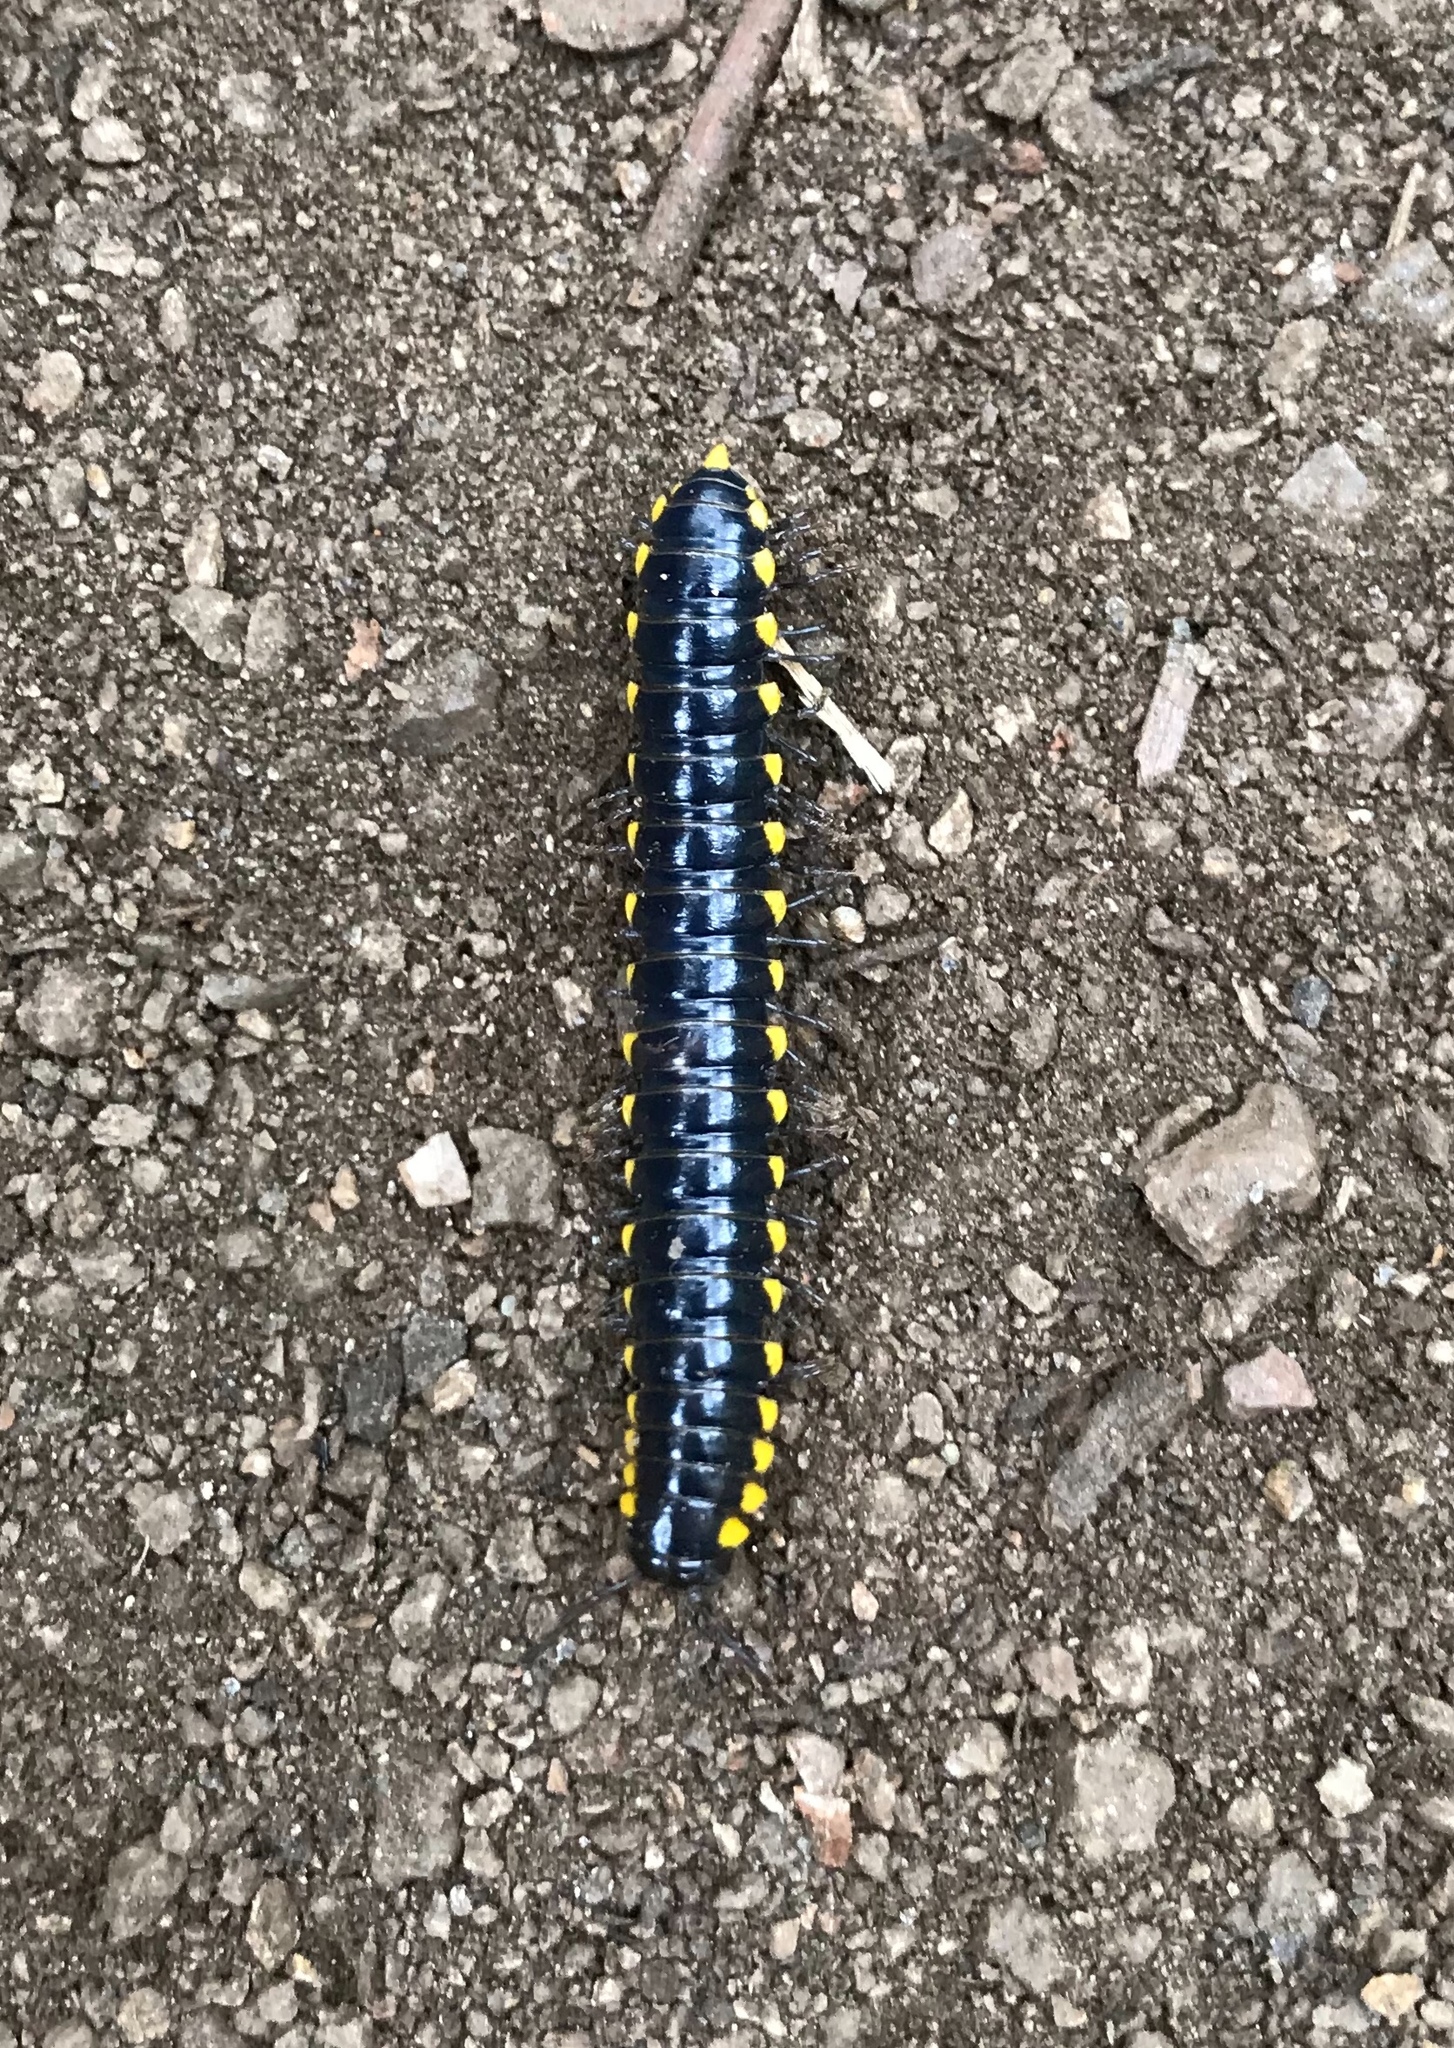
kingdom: Animalia
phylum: Arthropoda
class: Diplopoda
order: Polydesmida
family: Xystodesmidae
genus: Harpaphe
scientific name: Harpaphe haydeniana
